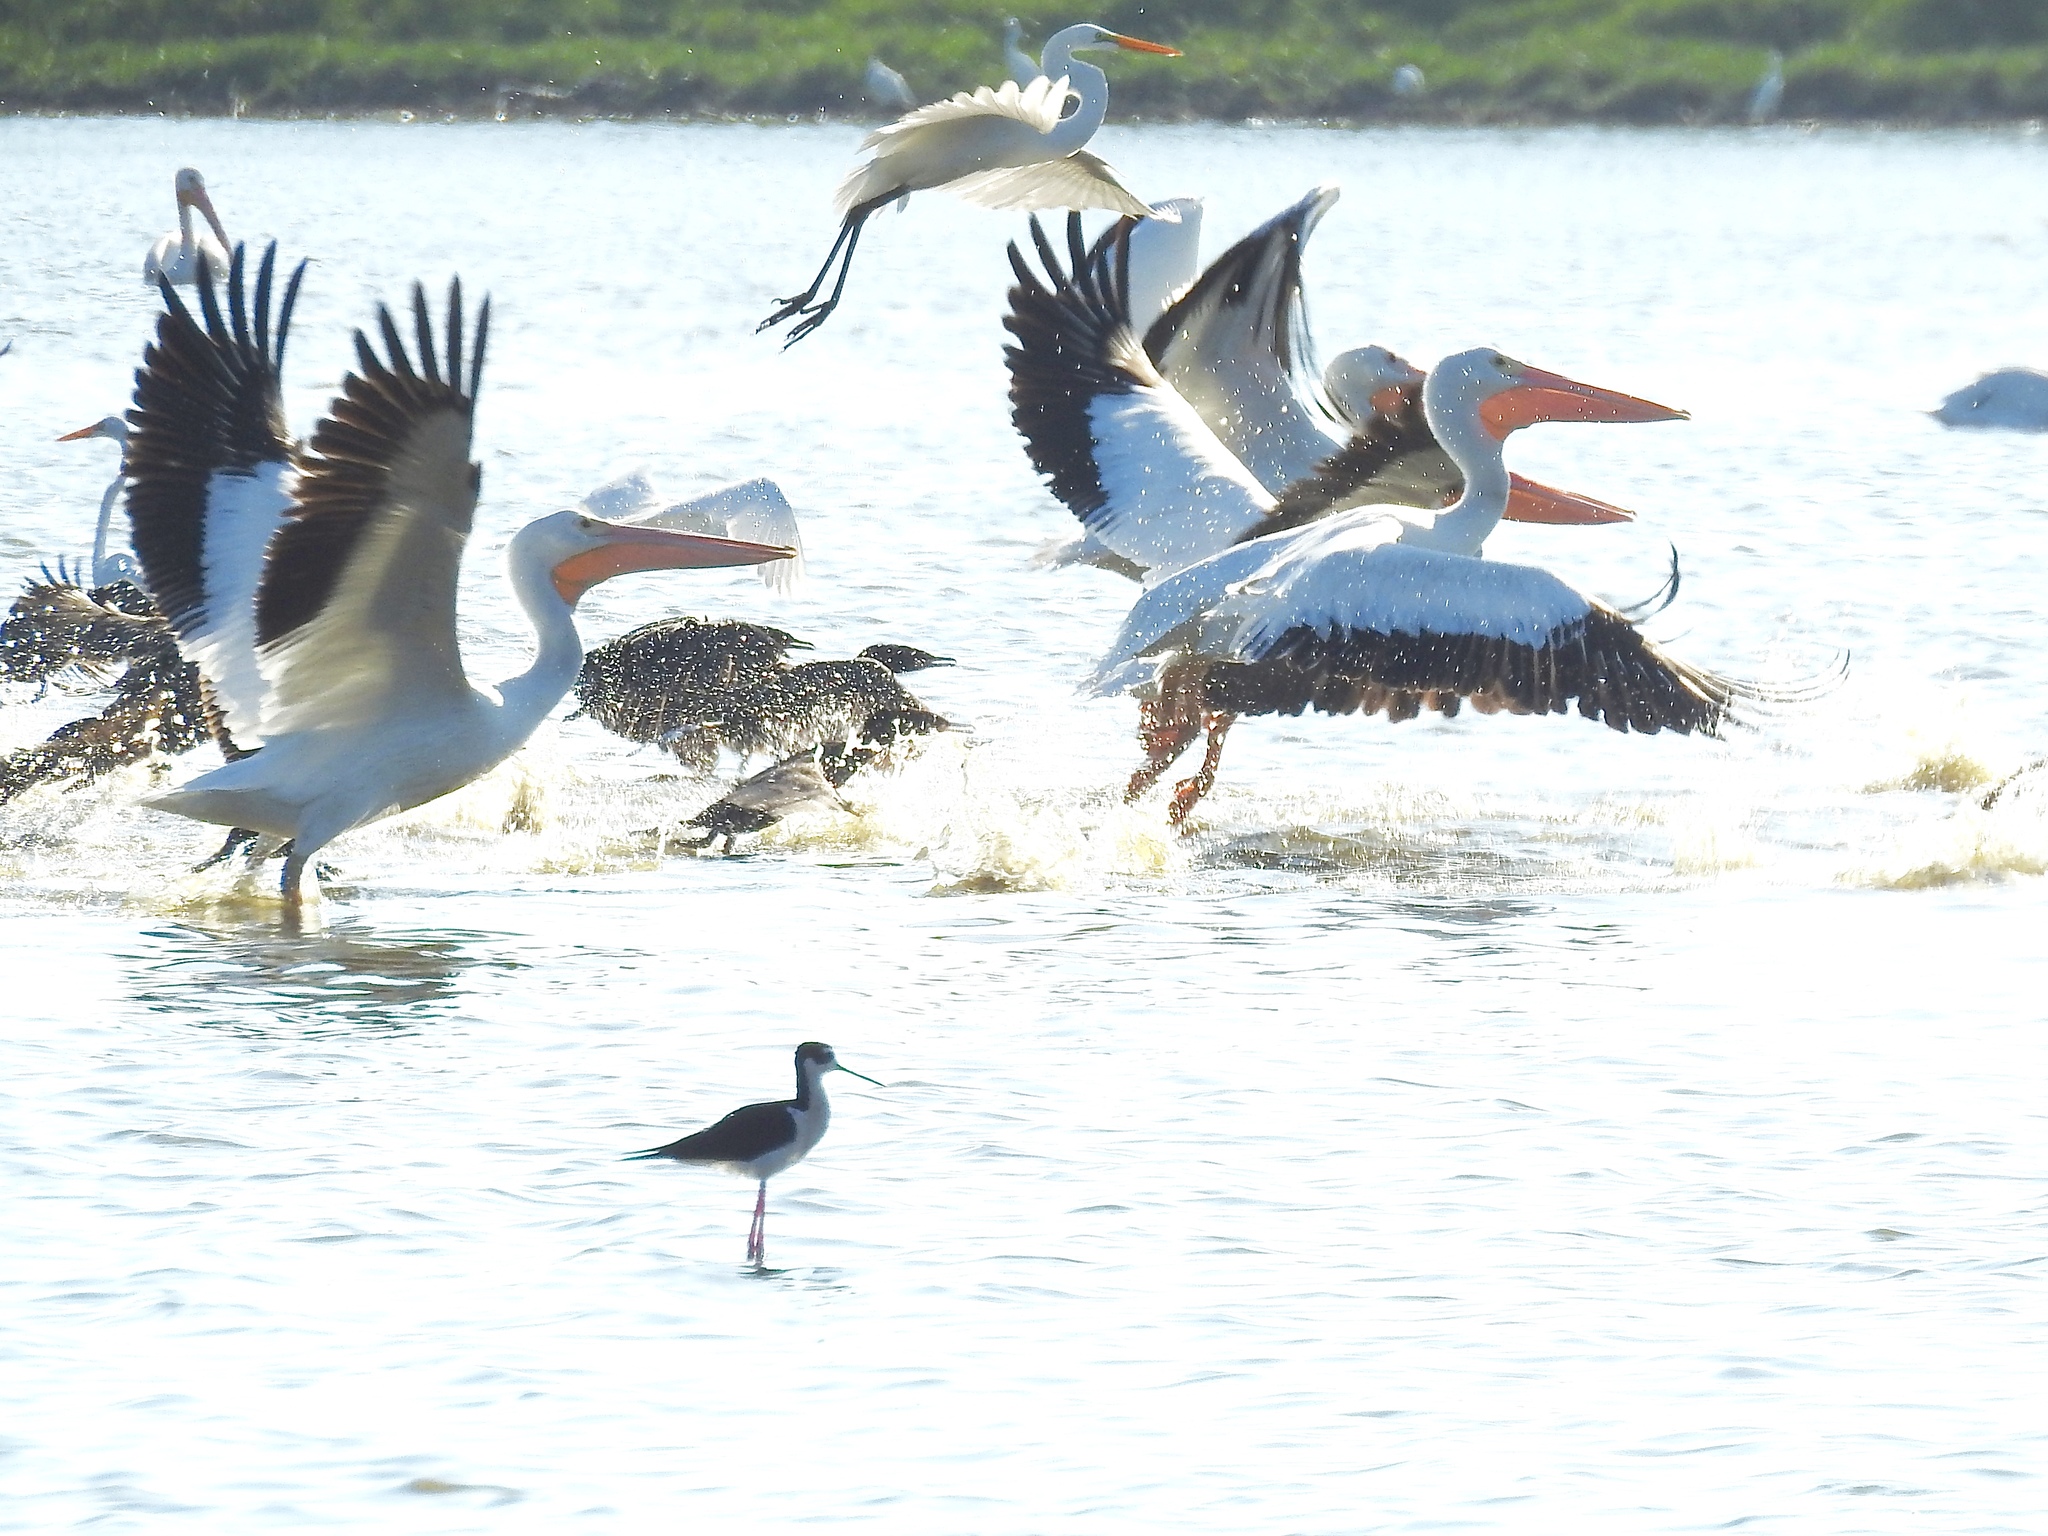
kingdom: Animalia
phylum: Chordata
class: Aves
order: Pelecaniformes
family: Pelecanidae
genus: Pelecanus
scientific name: Pelecanus erythrorhynchos
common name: American white pelican
